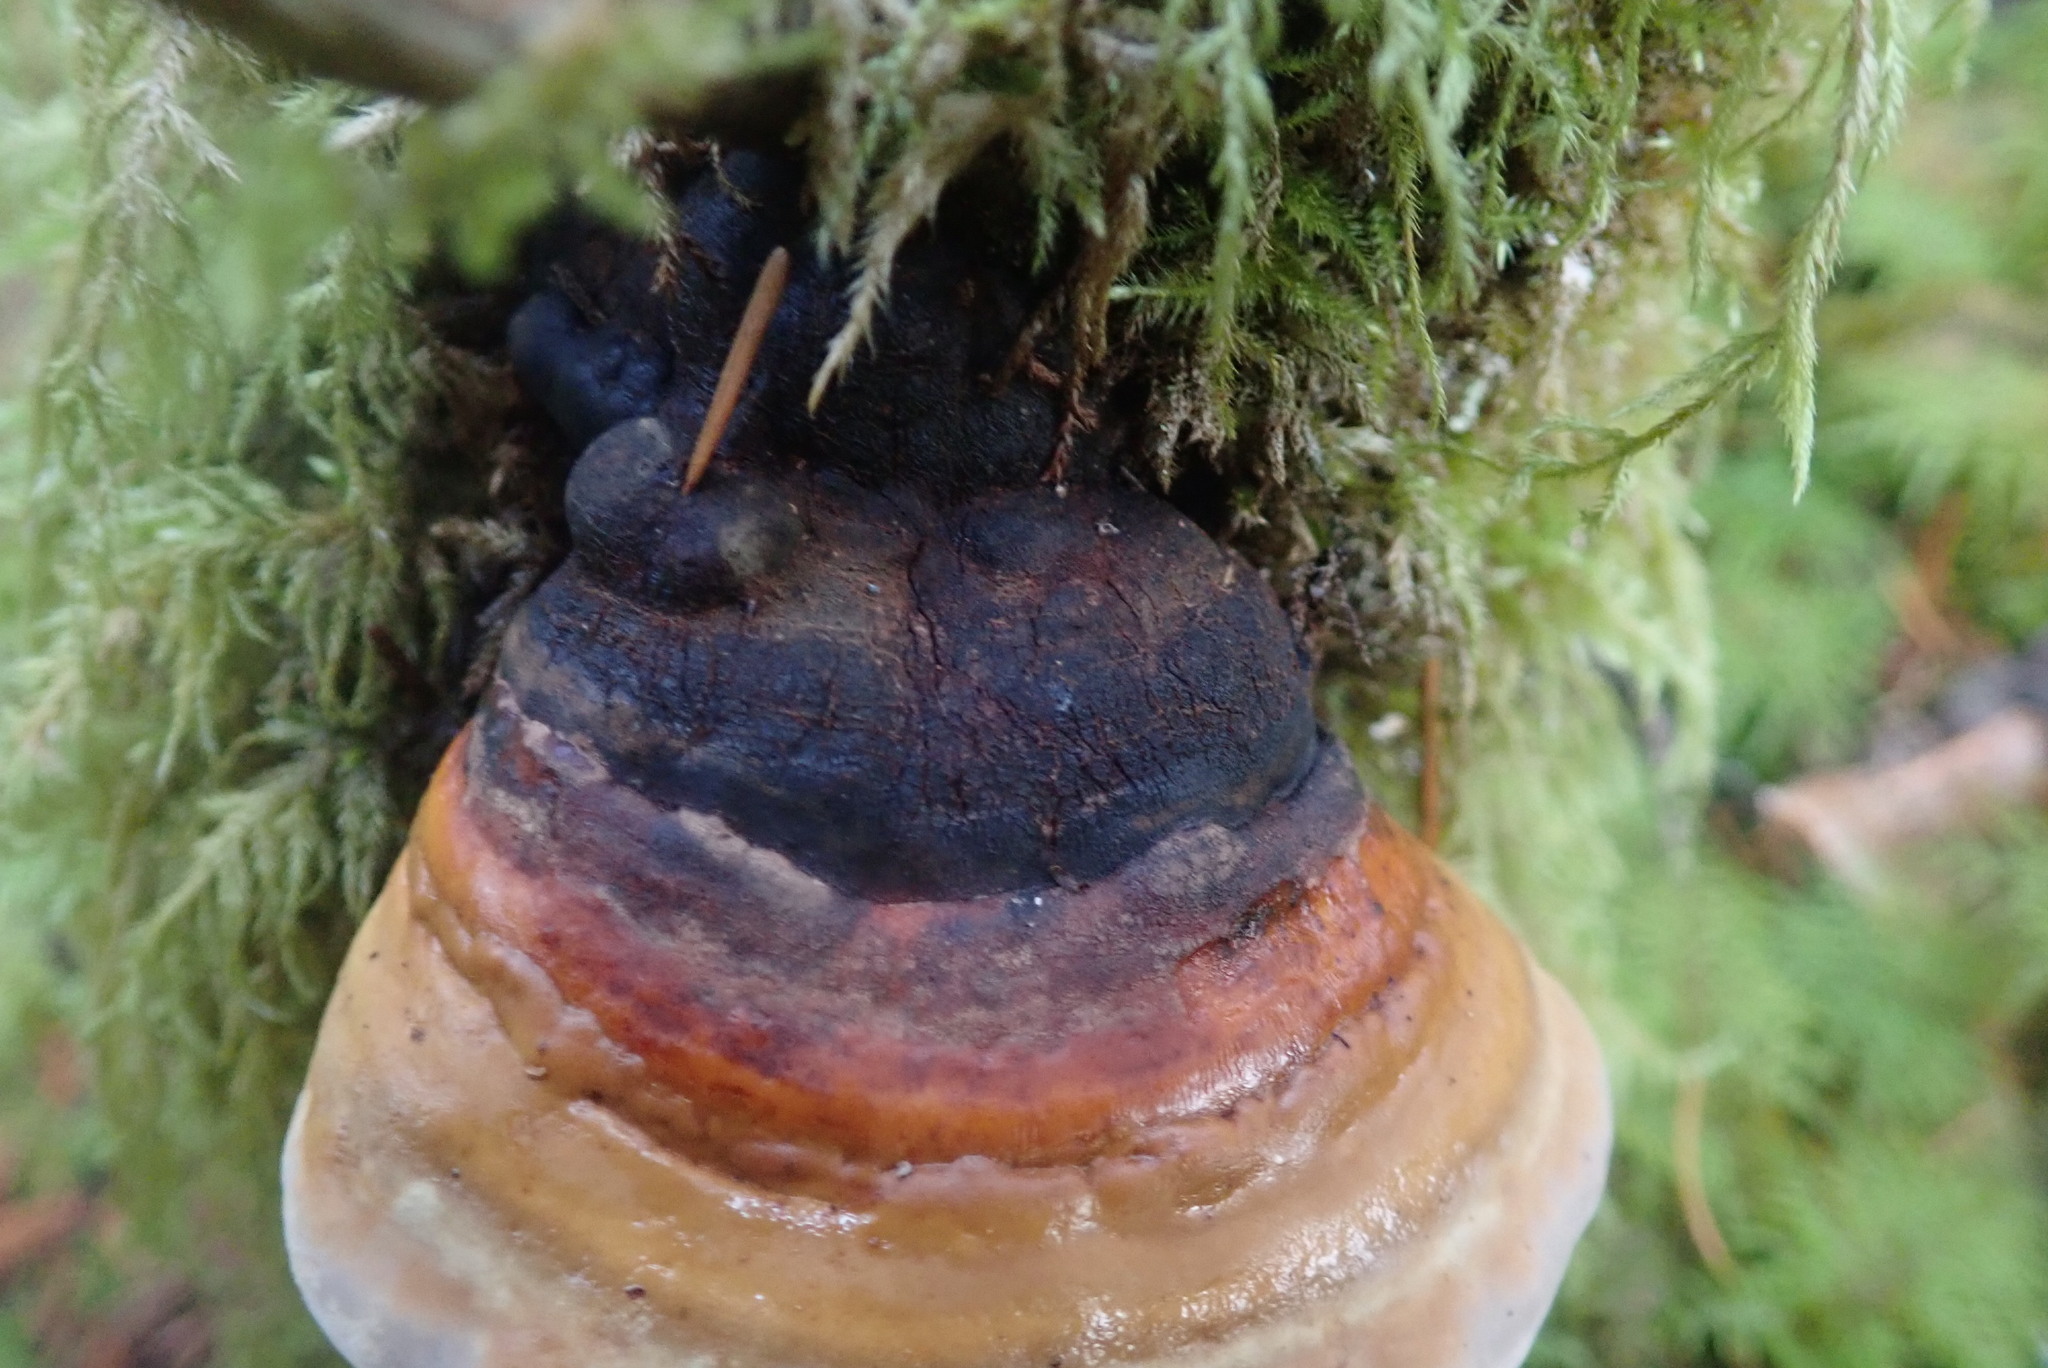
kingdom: Fungi
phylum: Basidiomycota
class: Agaricomycetes
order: Polyporales
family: Fomitopsidaceae
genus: Fomitopsis
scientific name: Fomitopsis mounceae
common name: Northern red belt
